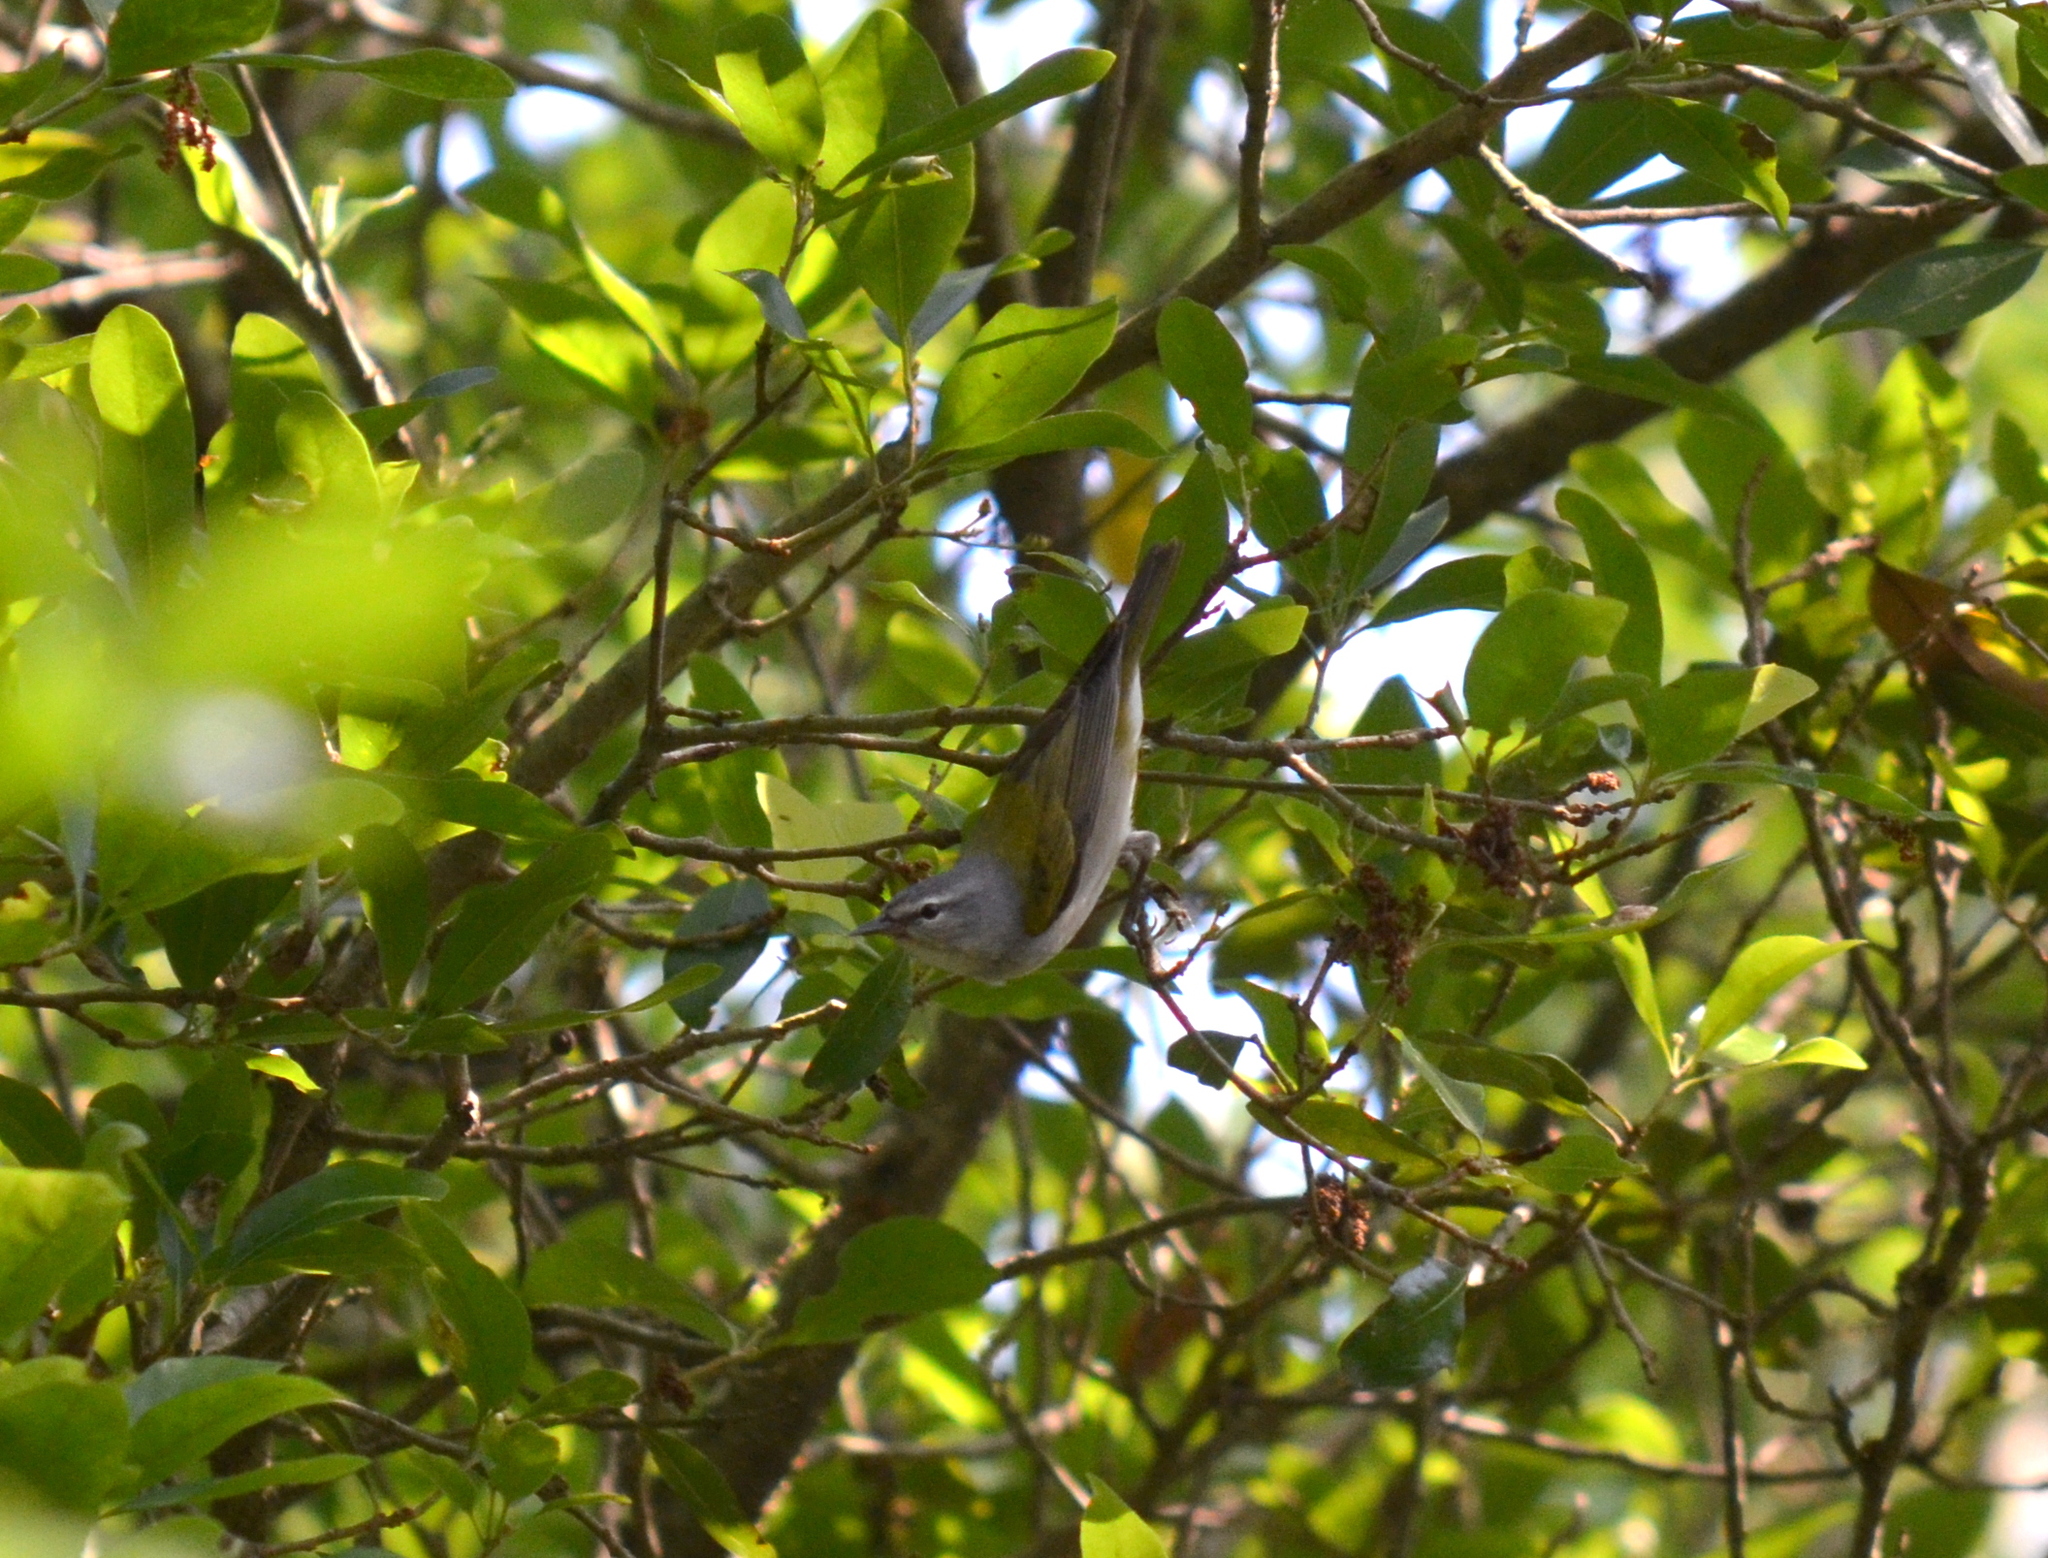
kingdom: Animalia
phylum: Chordata
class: Aves
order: Passeriformes
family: Parulidae
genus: Leiothlypis
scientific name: Leiothlypis peregrina
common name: Tennessee warbler
